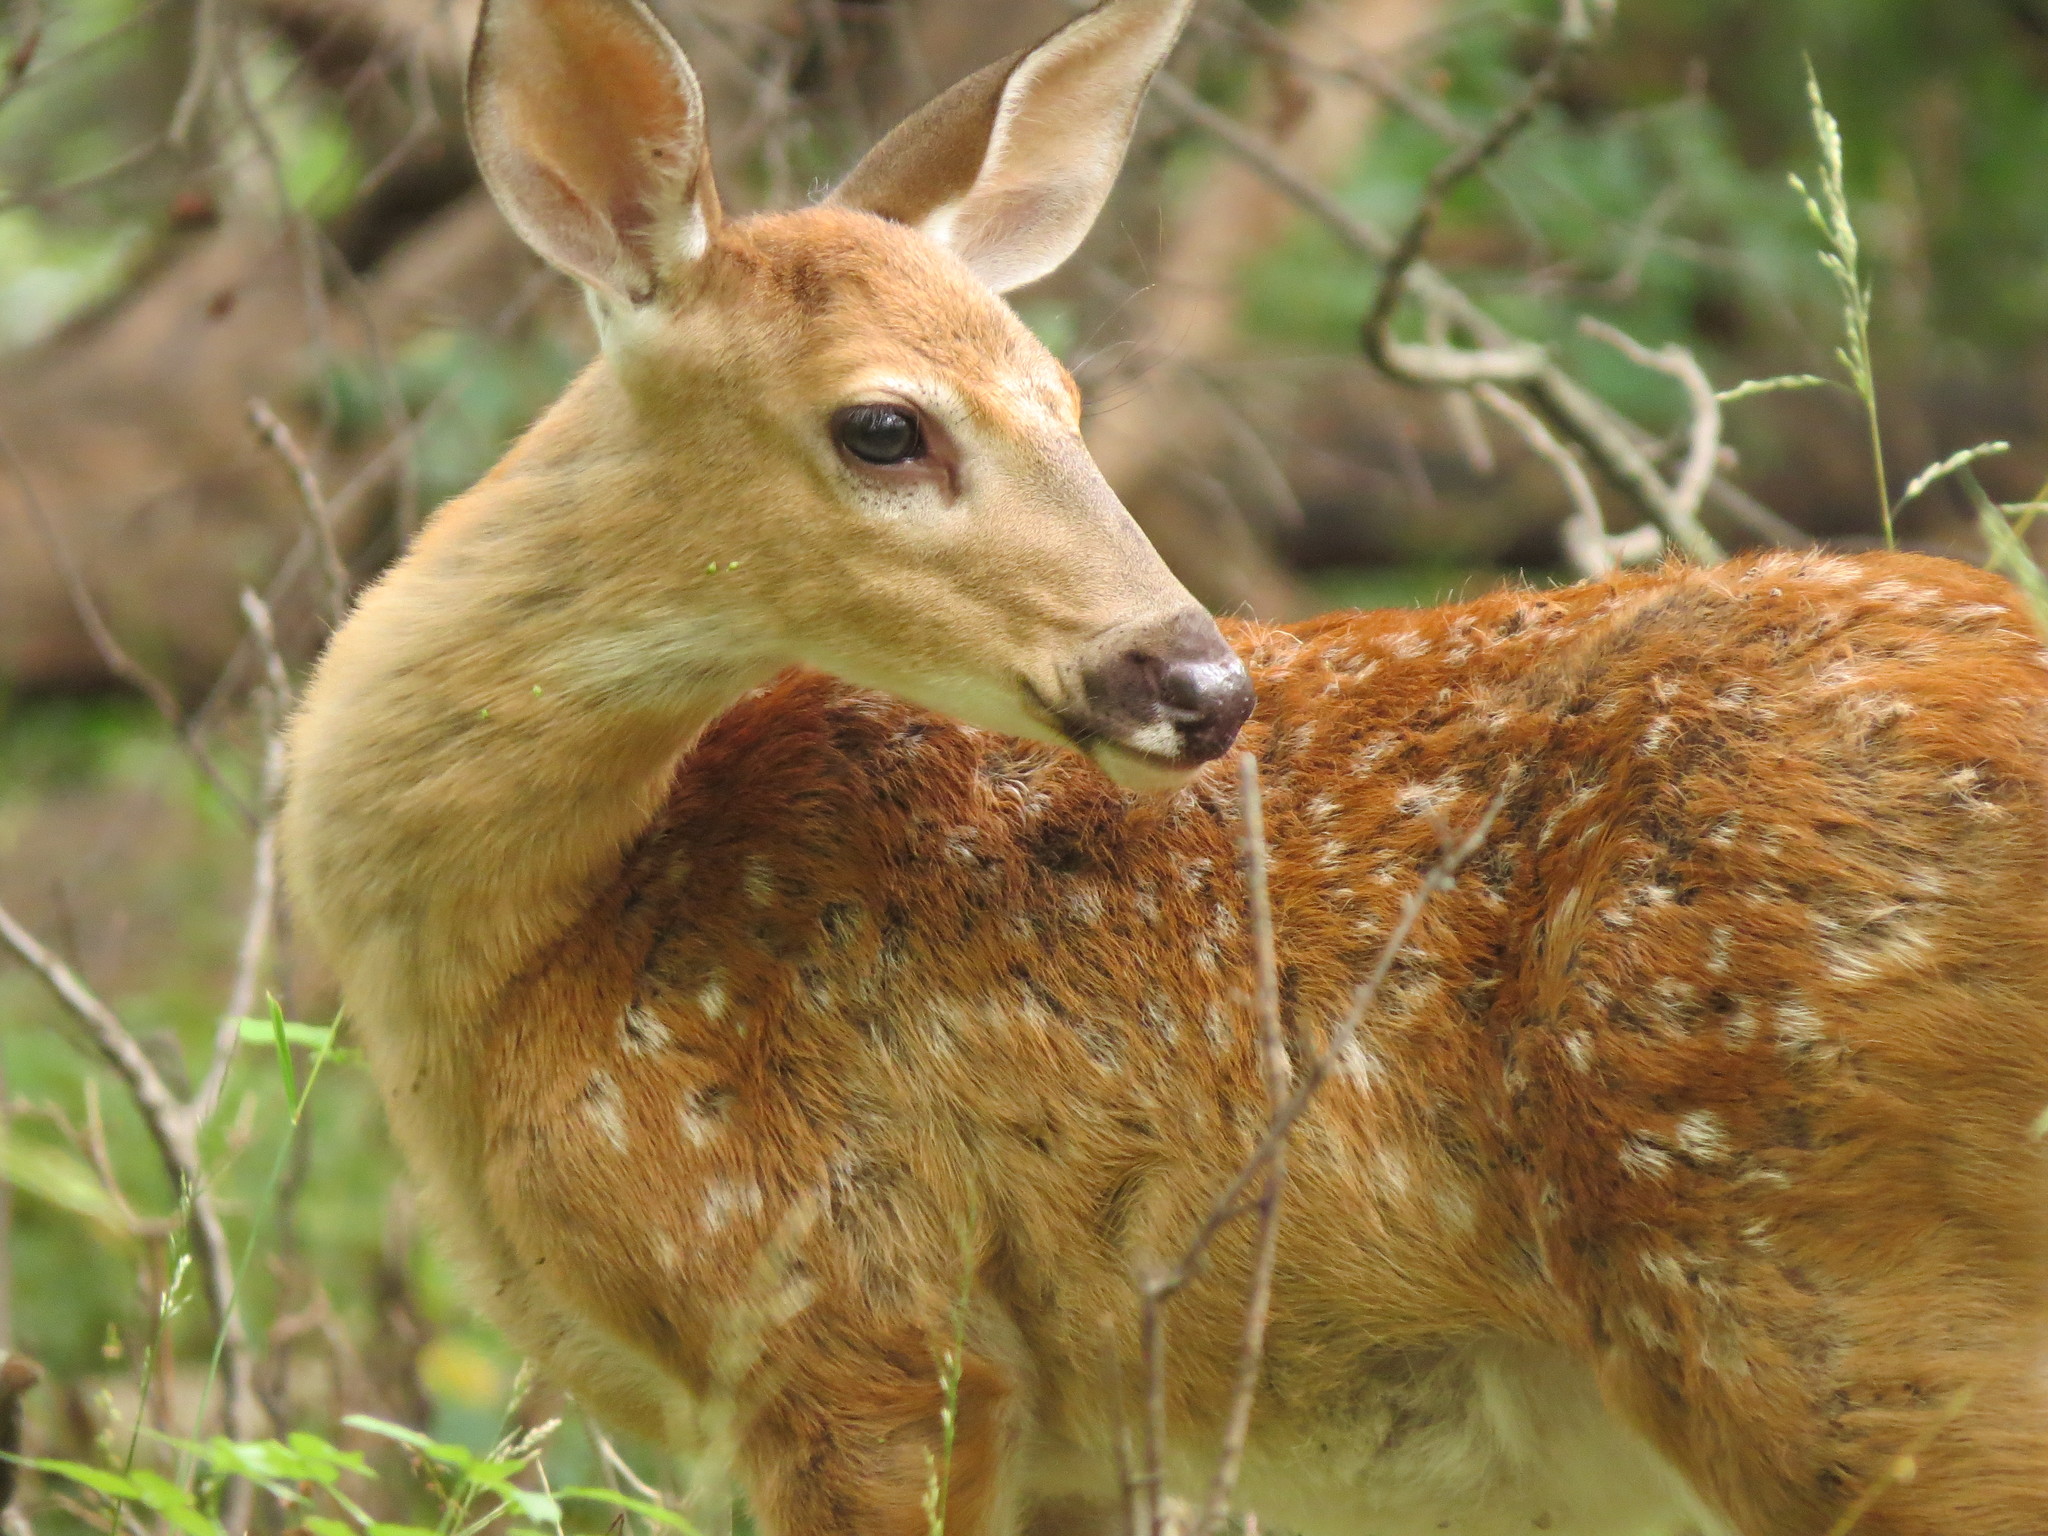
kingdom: Animalia
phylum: Chordata
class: Mammalia
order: Artiodactyla
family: Cervidae
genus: Odocoileus
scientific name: Odocoileus virginianus
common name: White-tailed deer
